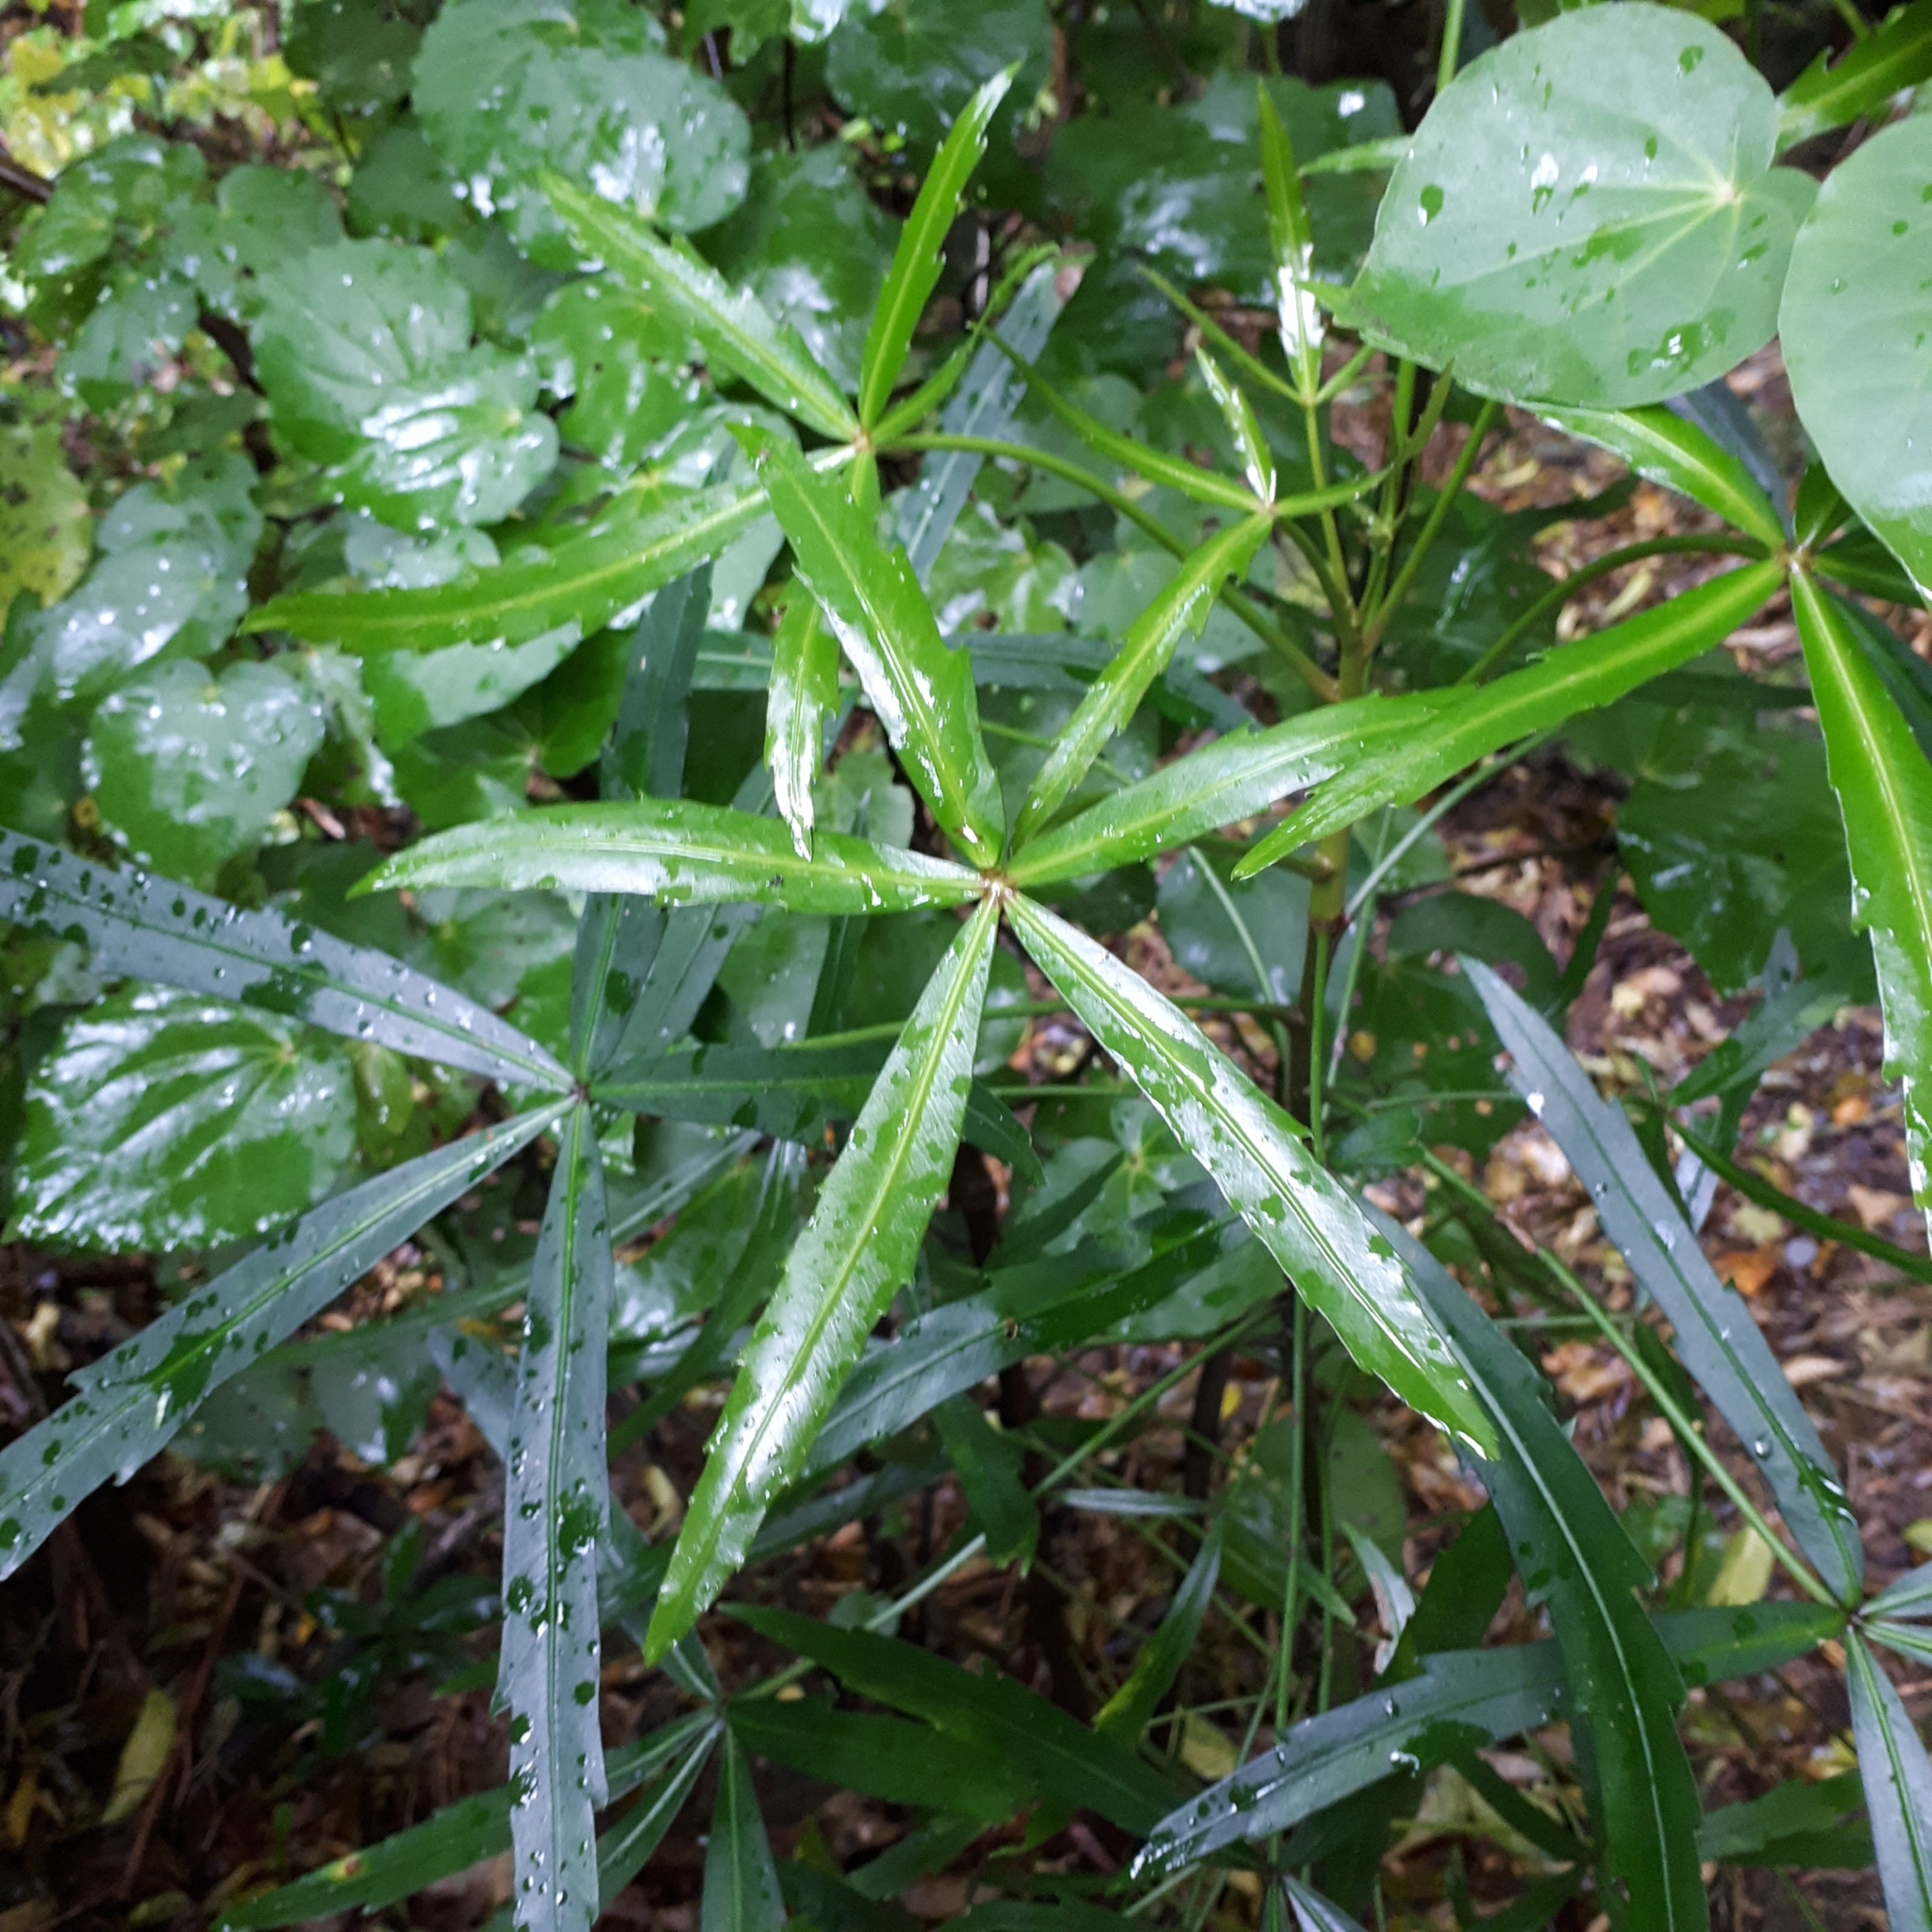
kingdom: Plantae
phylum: Tracheophyta
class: Magnoliopsida
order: Apiales
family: Araliaceae
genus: Pseudopanax
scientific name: Pseudopanax
